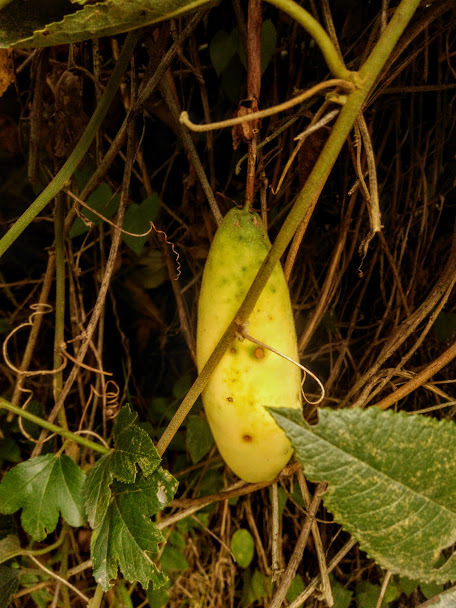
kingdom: Plantae
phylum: Tracheophyta
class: Magnoliopsida
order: Malpighiales
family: Passifloraceae
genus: Passiflora
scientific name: Passiflora tarminiana
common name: Banana poka
